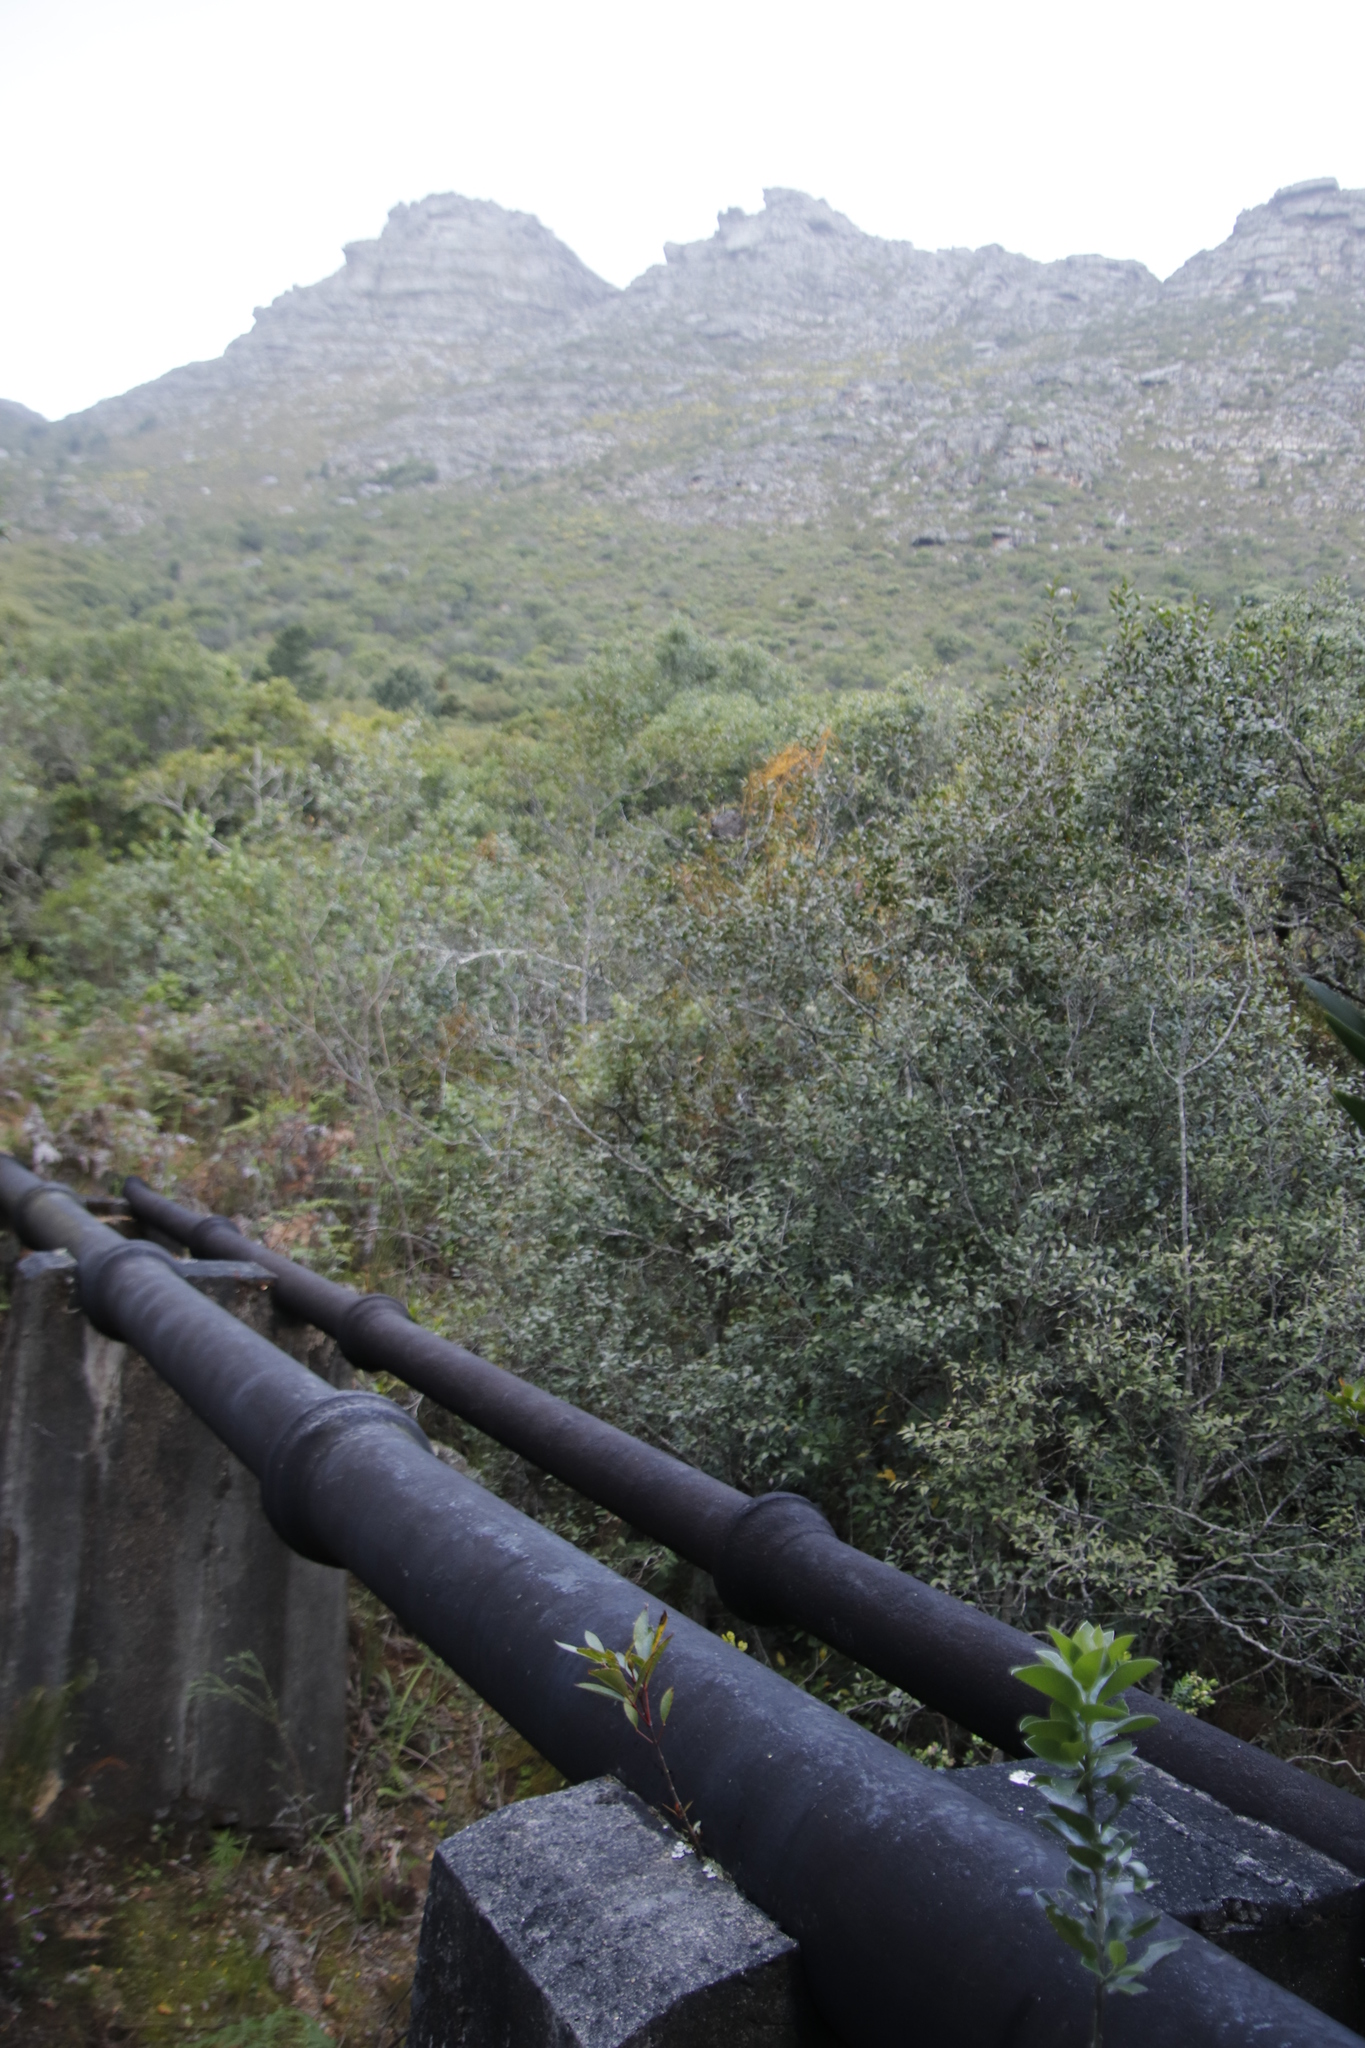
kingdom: Plantae
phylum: Tracheophyta
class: Magnoliopsida
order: Oxalidales
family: Cunoniaceae
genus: Cunonia
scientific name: Cunonia capensis
